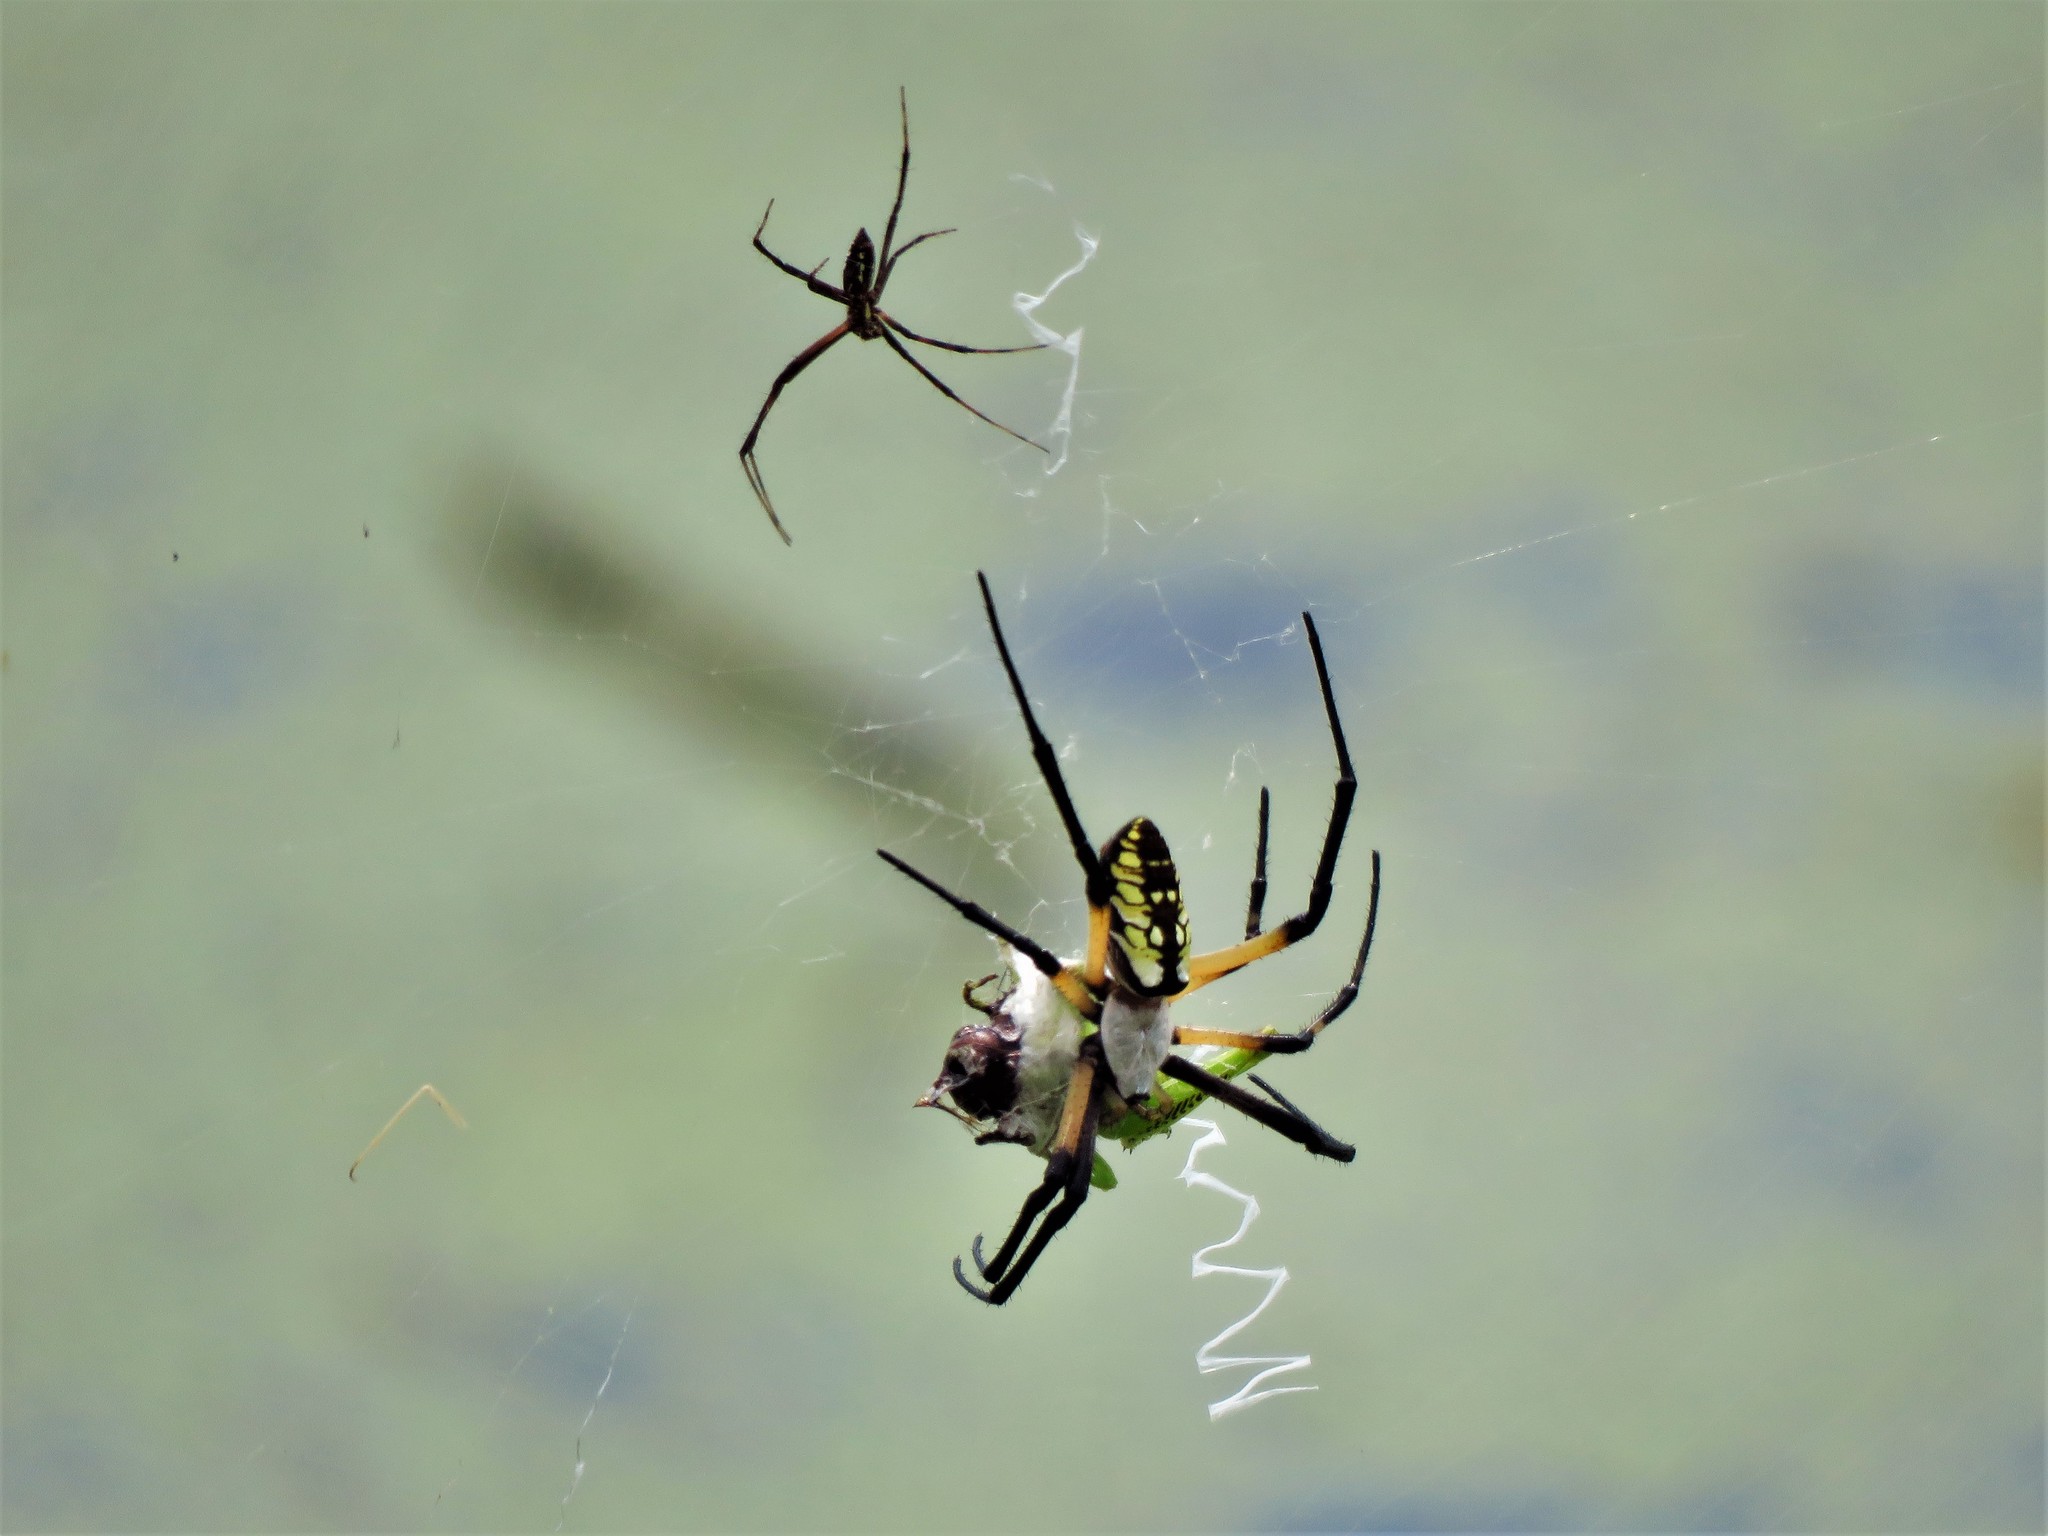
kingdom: Animalia
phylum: Arthropoda
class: Arachnida
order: Araneae
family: Araneidae
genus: Argiope
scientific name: Argiope aurantia
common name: Orb weavers
